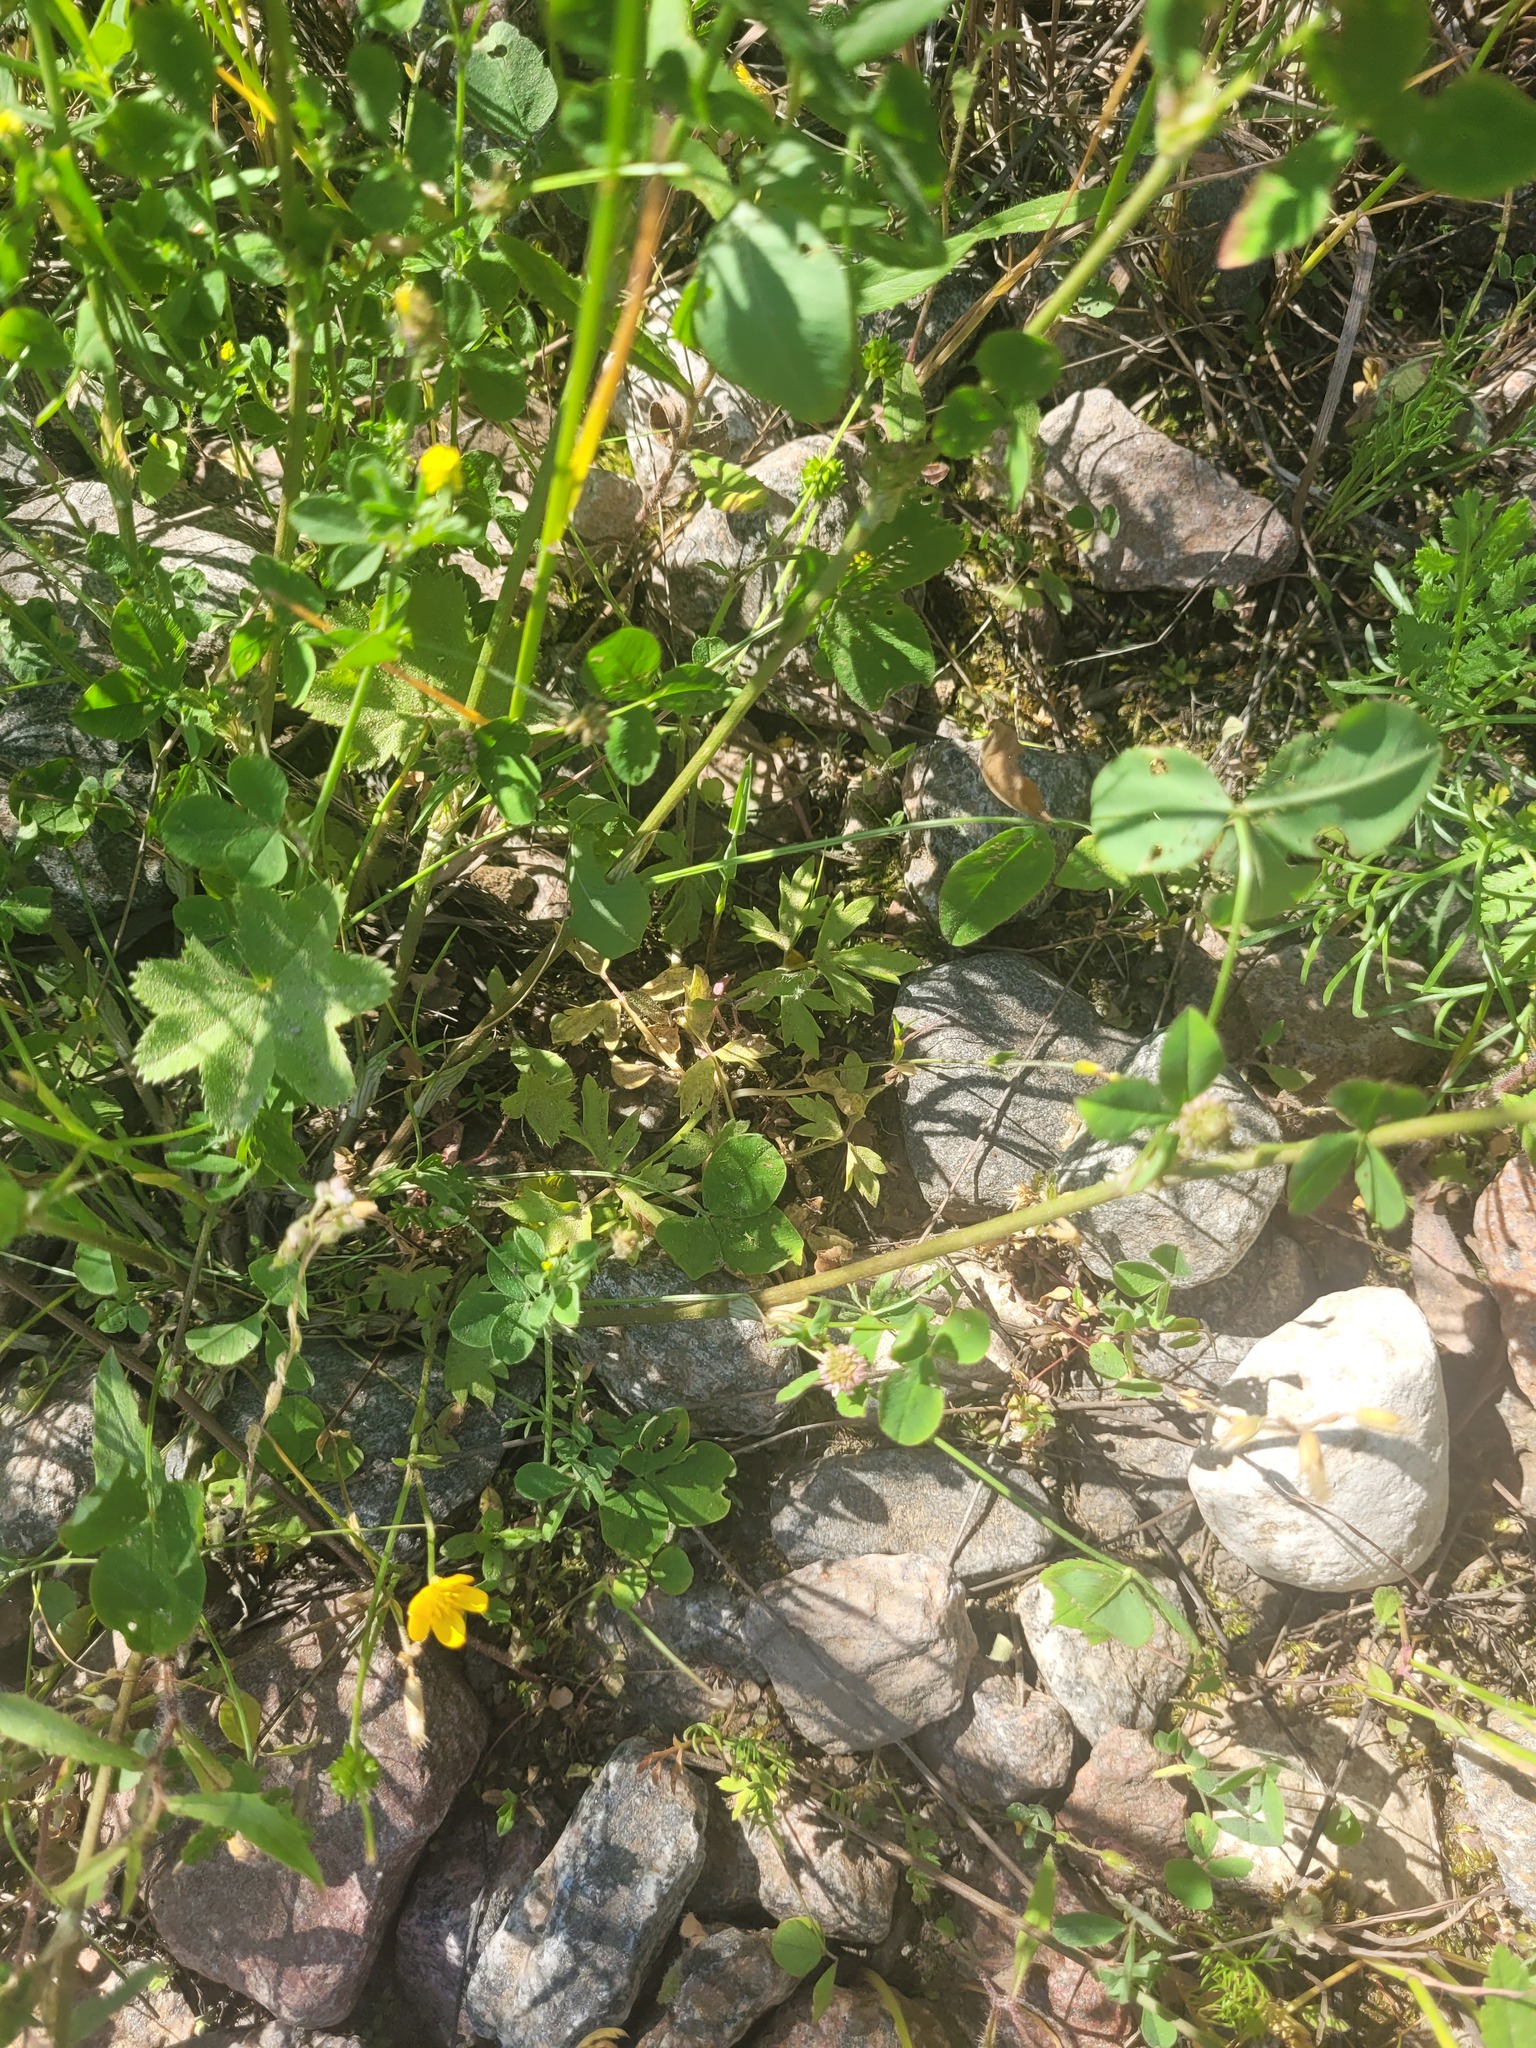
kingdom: Plantae
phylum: Tracheophyta
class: Magnoliopsida
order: Ranunculales
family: Ranunculaceae
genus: Ranunculus
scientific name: Ranunculus repens
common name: Creeping buttercup
